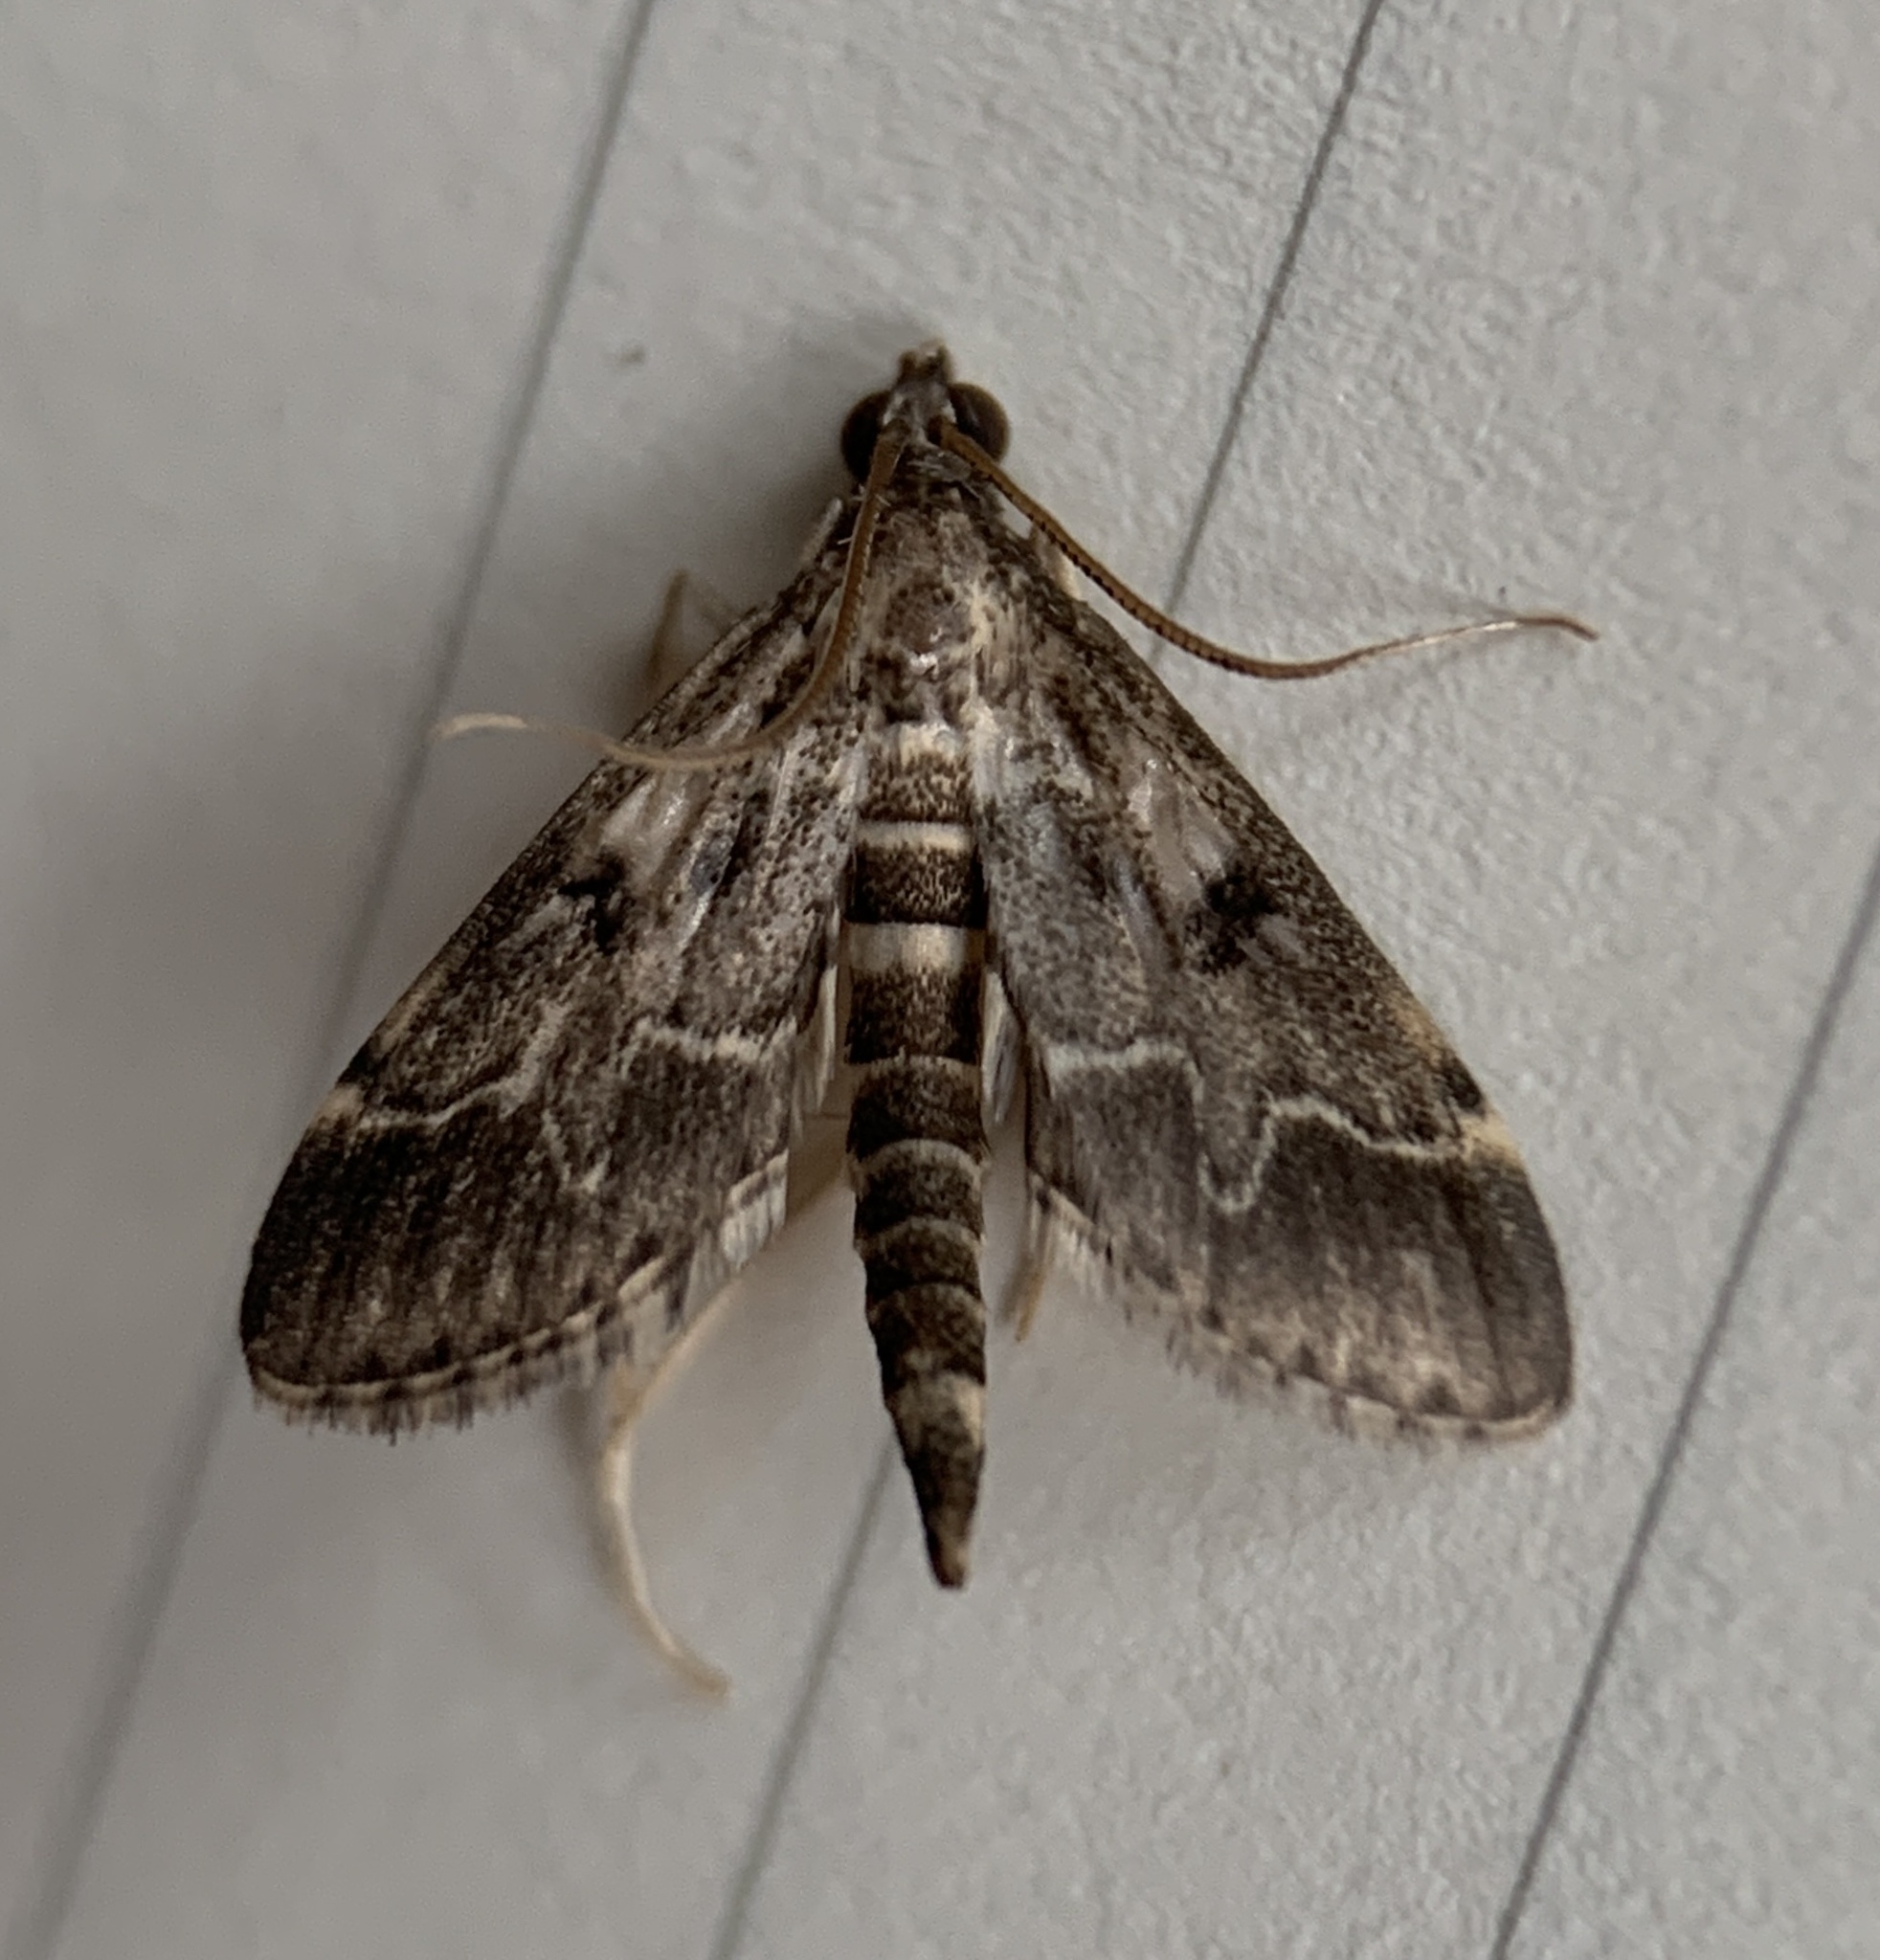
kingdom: Animalia
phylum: Arthropoda
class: Insecta
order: Lepidoptera
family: Crambidae
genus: Duponchelia
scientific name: Duponchelia fovealis
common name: Crambid moth
